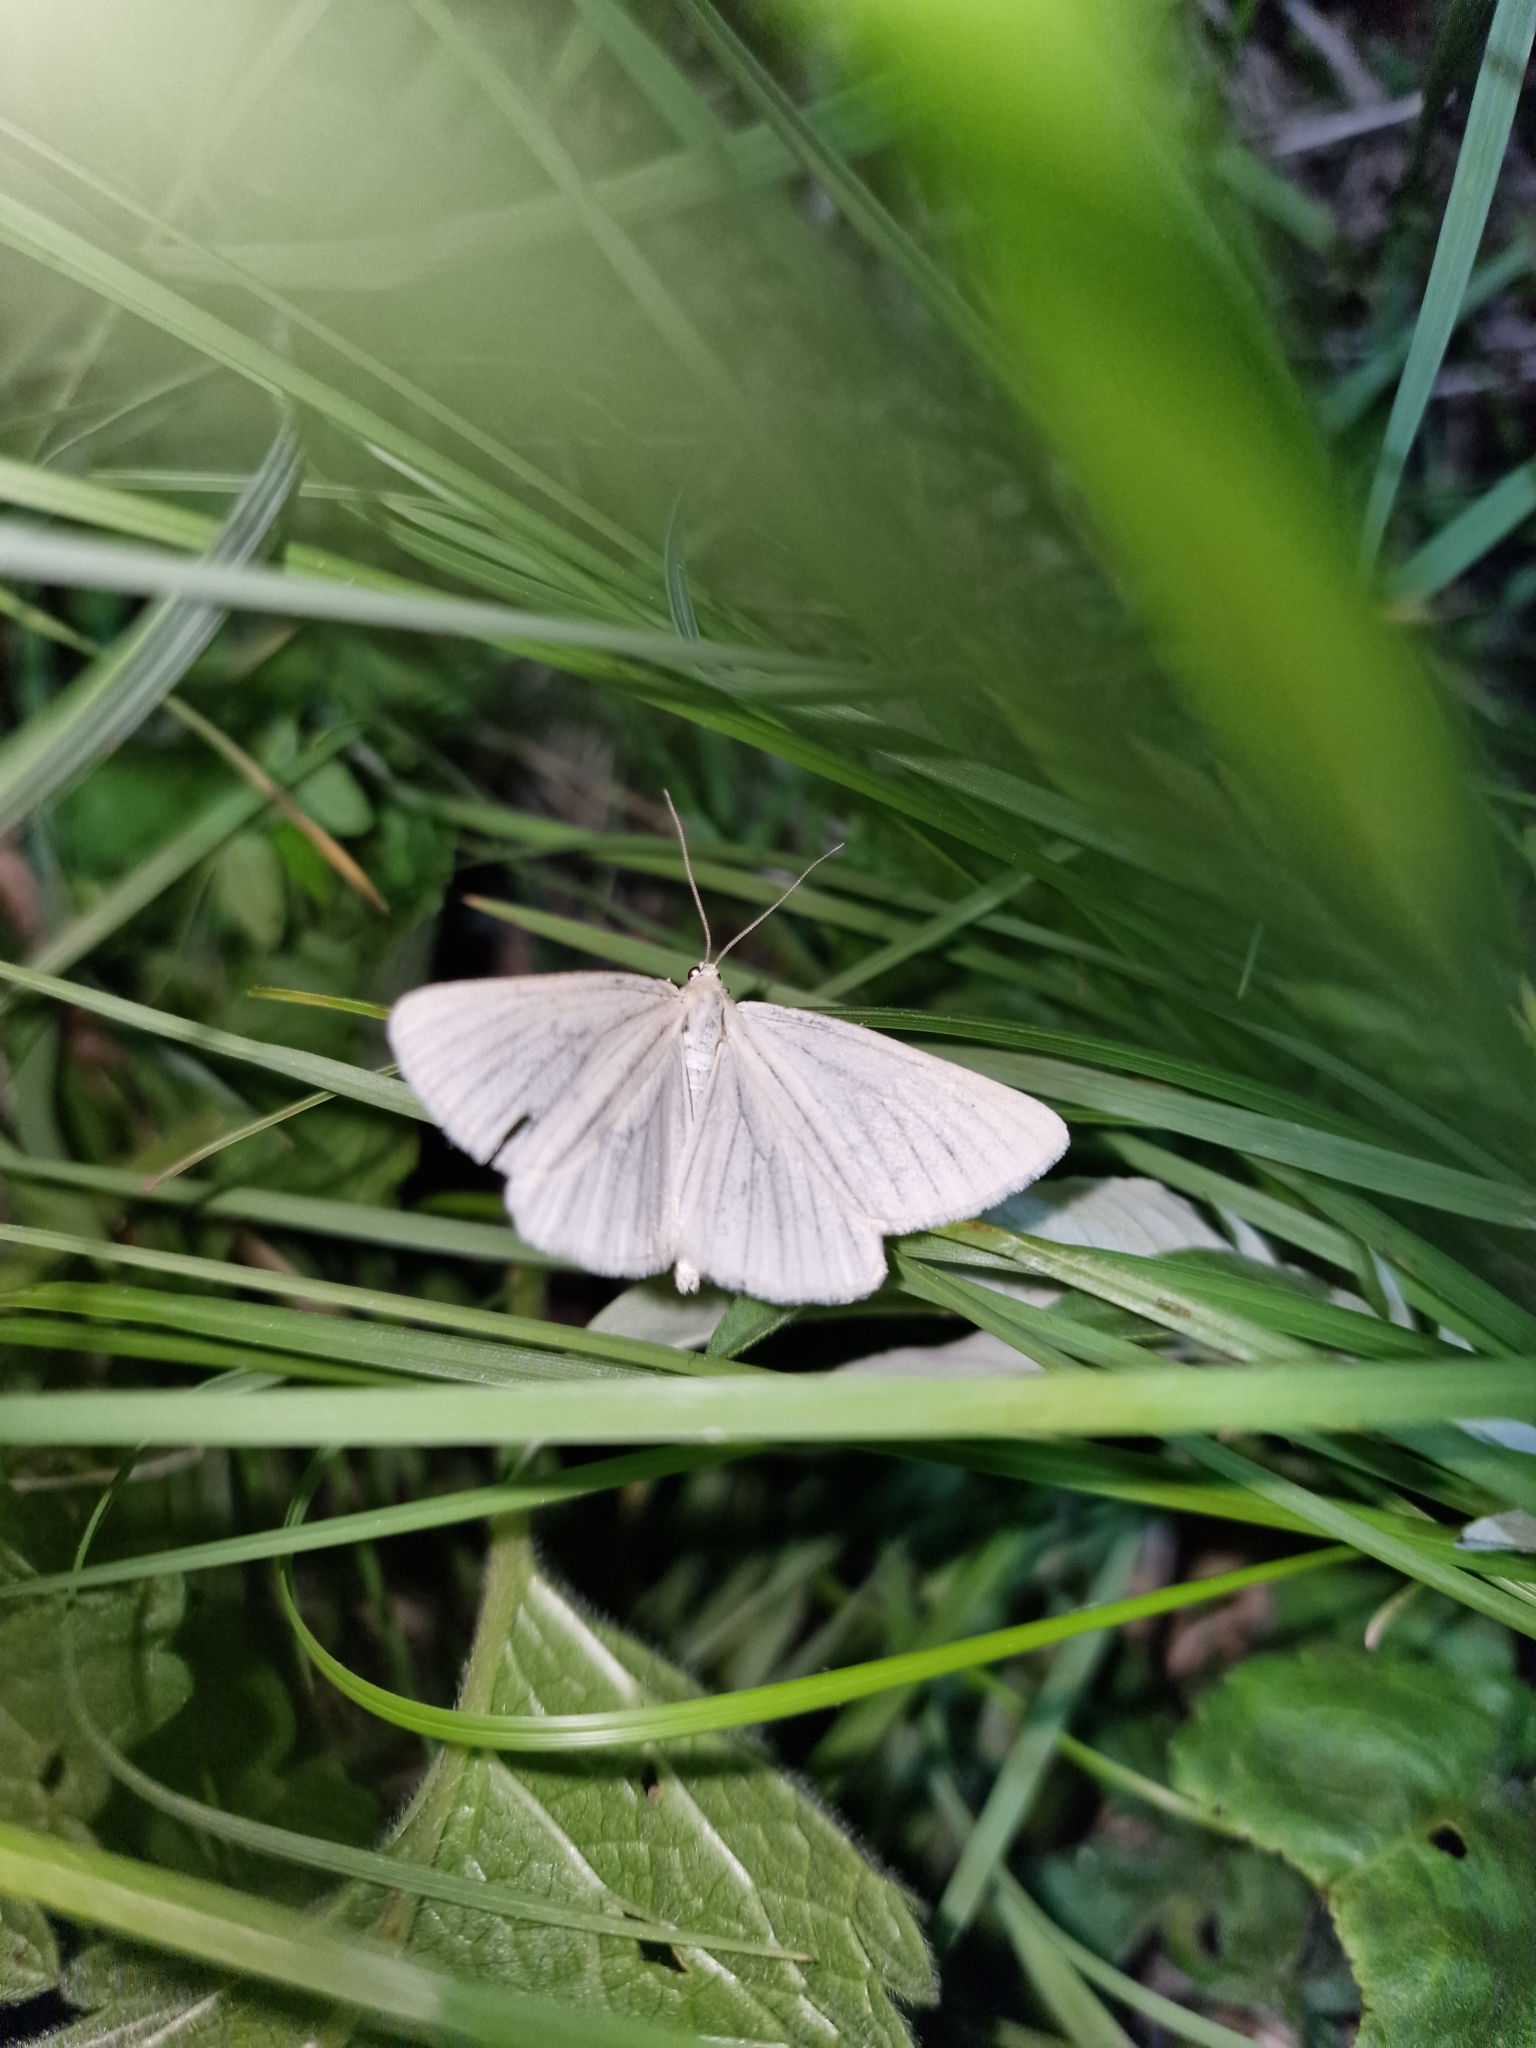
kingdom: Animalia
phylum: Arthropoda
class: Insecta
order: Lepidoptera
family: Geometridae
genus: Siona
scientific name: Siona lineata
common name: Black-veined moth
